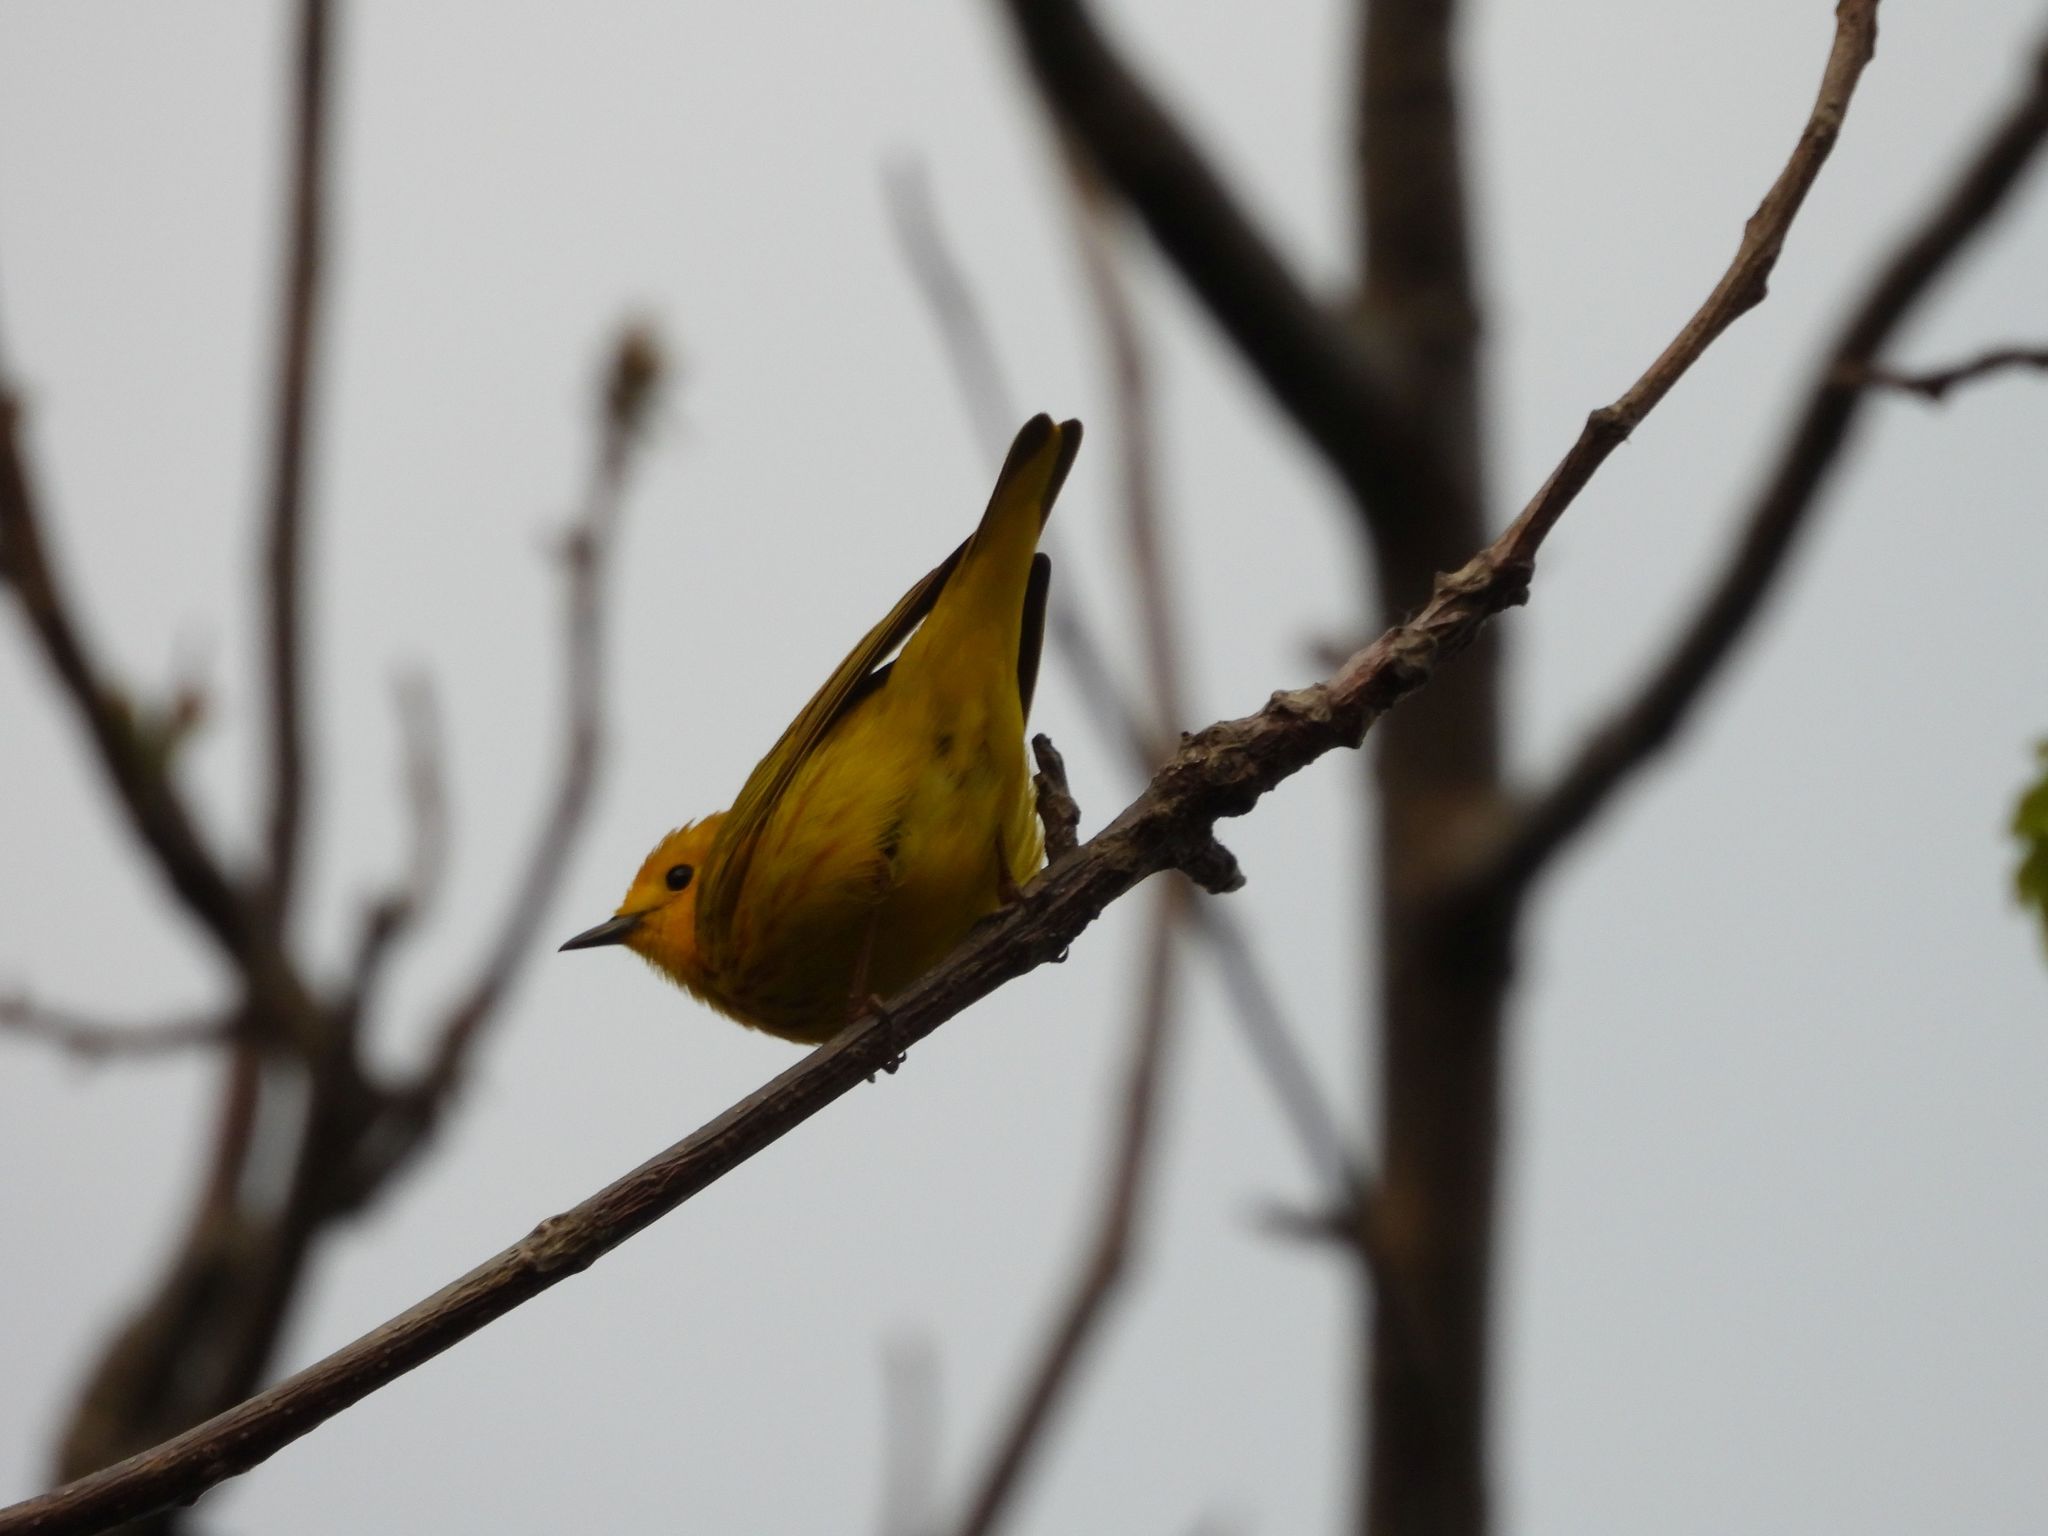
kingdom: Animalia
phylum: Chordata
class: Aves
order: Passeriformes
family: Parulidae
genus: Setophaga
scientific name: Setophaga petechia
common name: Yellow warbler
